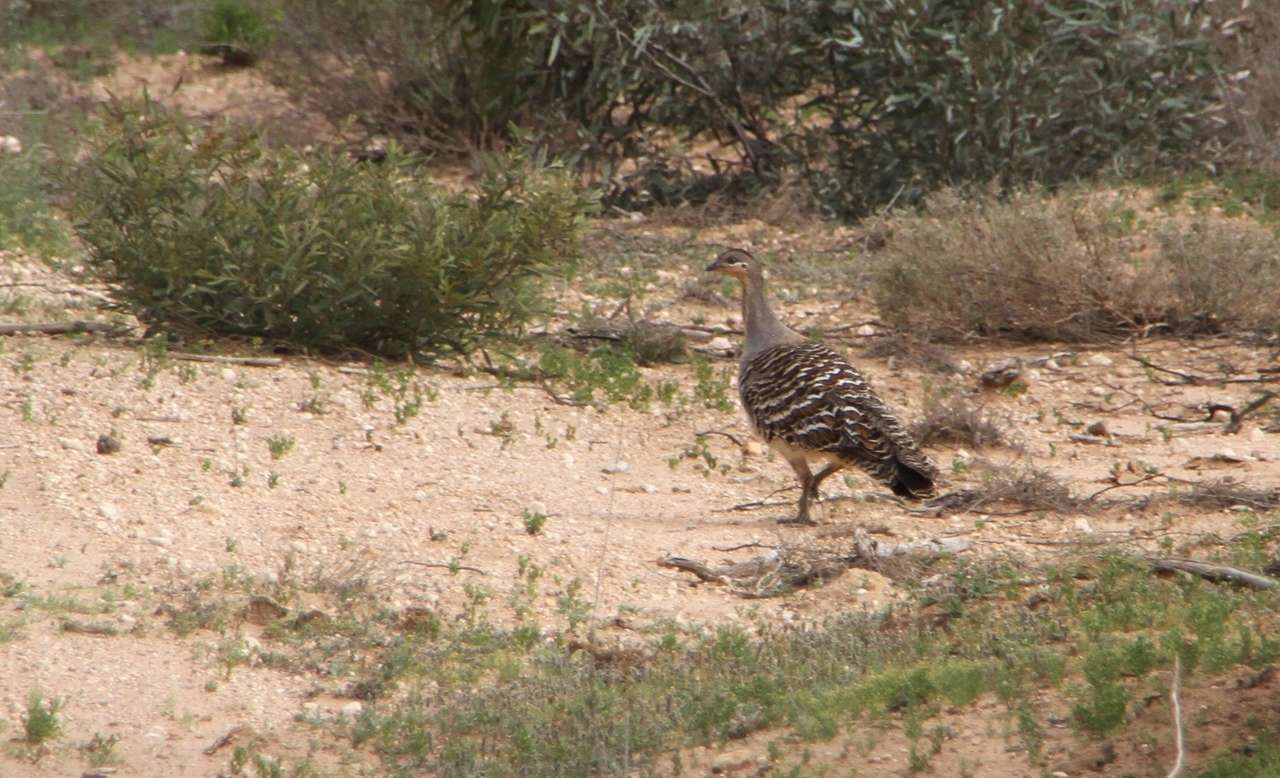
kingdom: Animalia
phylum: Chordata
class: Aves
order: Galliformes
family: Megapodiidae
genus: Leipoa
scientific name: Leipoa ocellata
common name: Malleefowl
